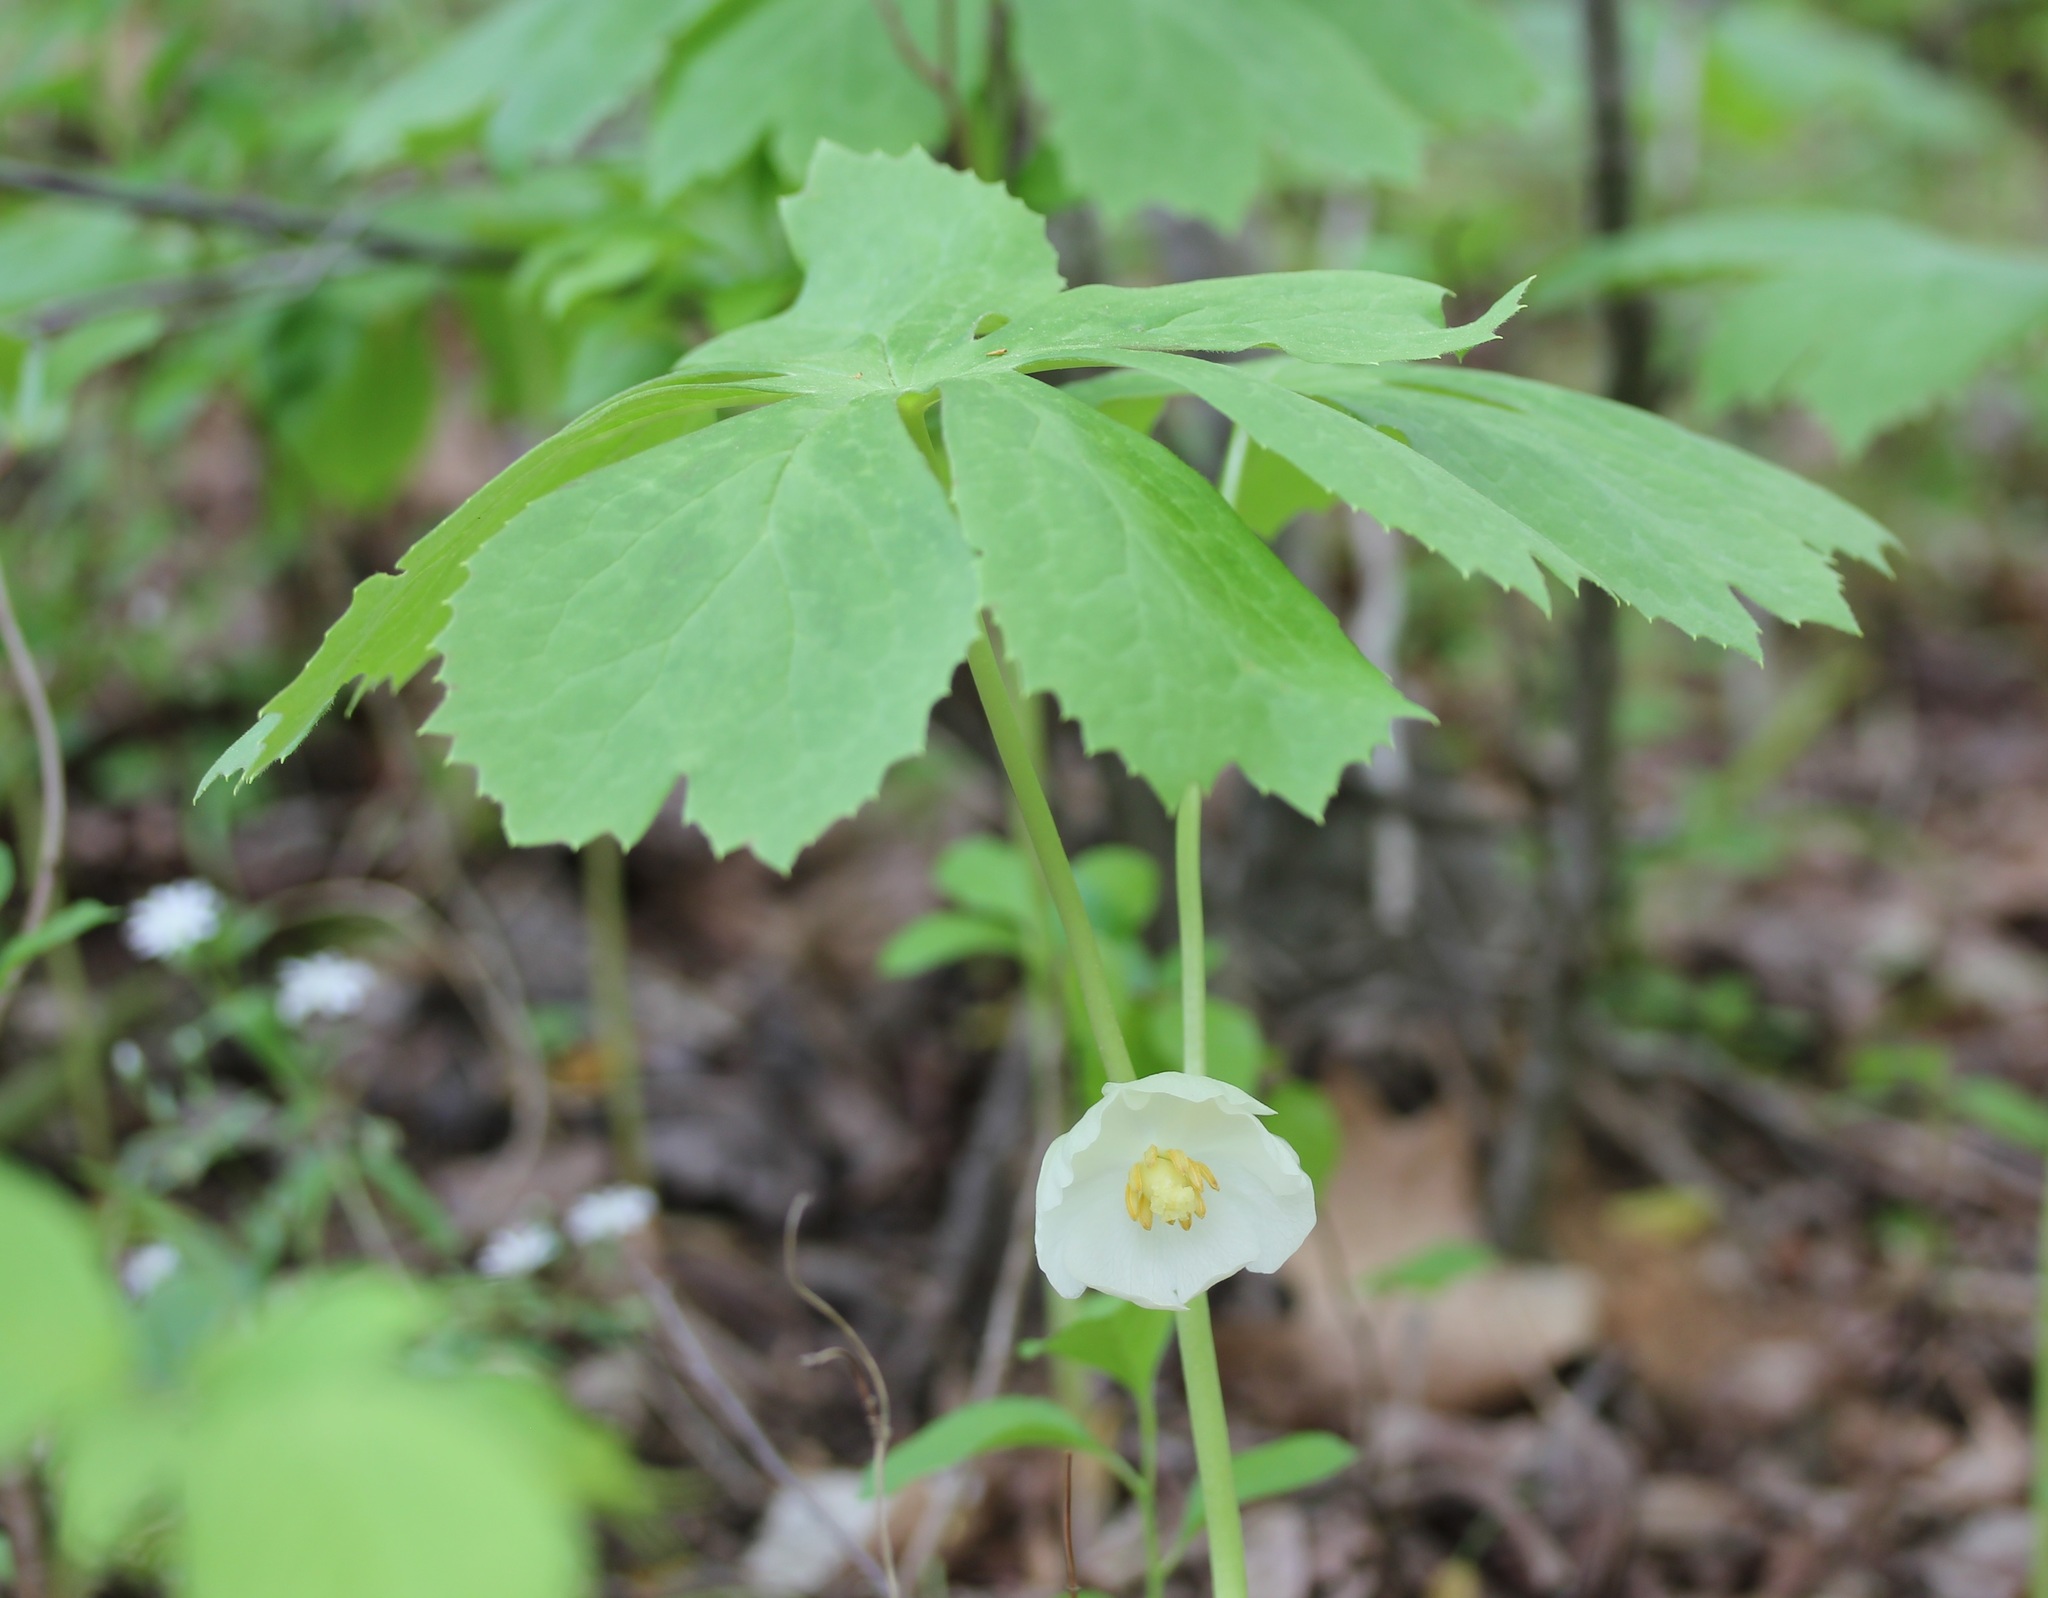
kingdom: Plantae
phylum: Tracheophyta
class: Magnoliopsida
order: Ranunculales
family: Berberidaceae
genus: Podophyllum
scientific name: Podophyllum peltatum
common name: Wild mandrake
